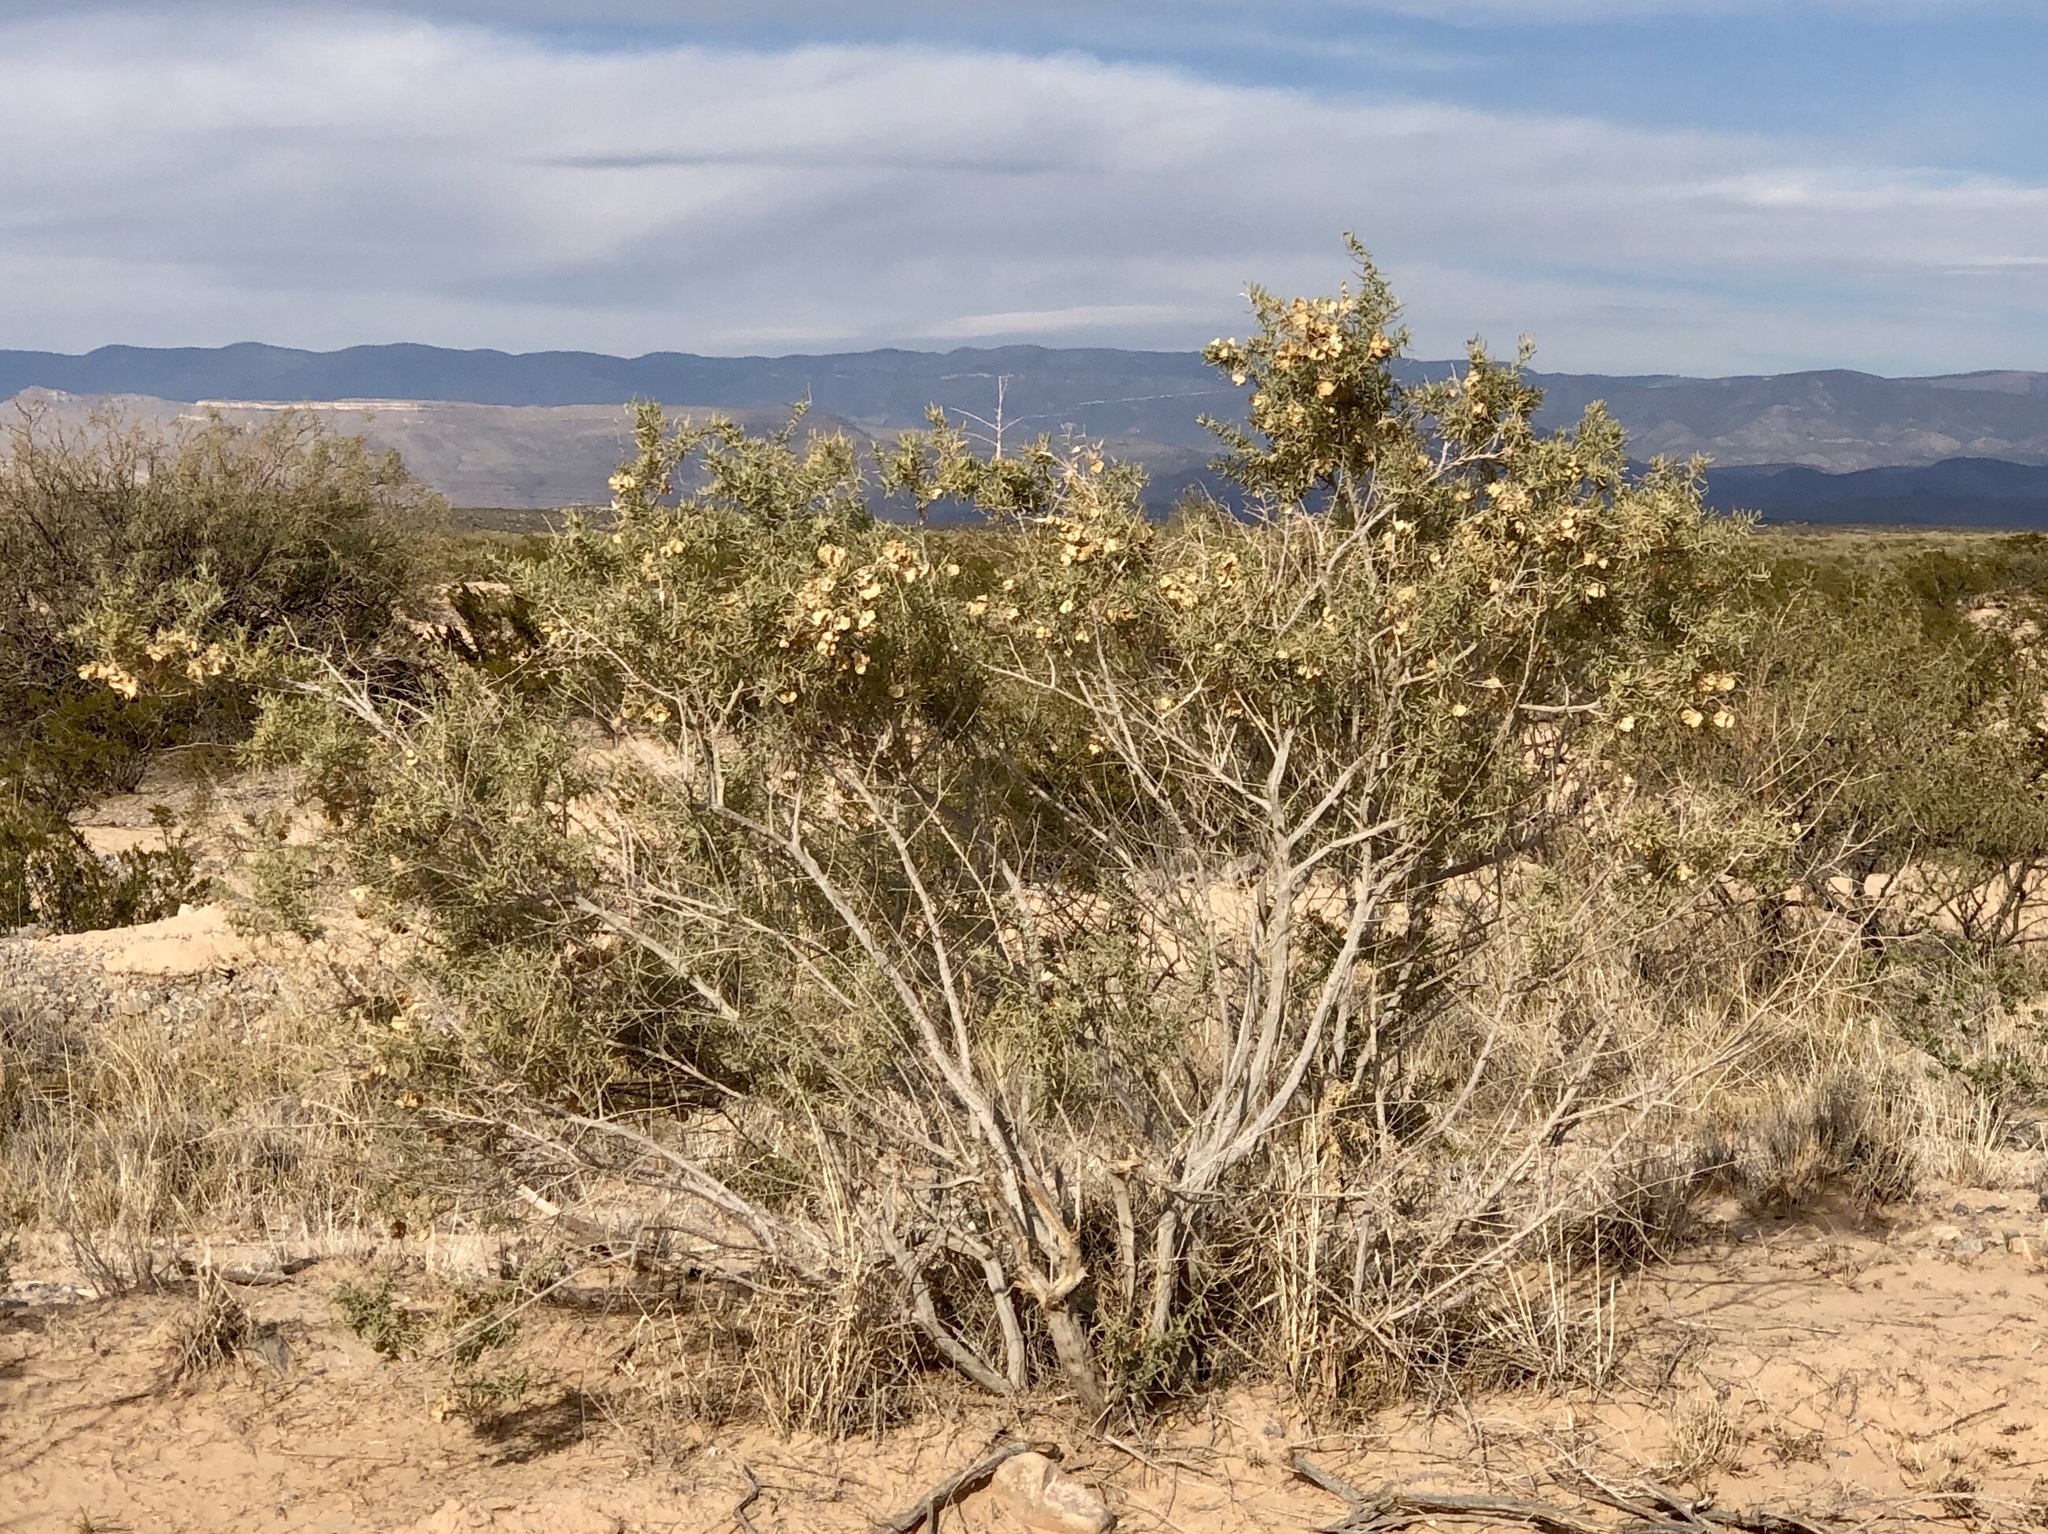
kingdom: Plantae
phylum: Tracheophyta
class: Magnoliopsida
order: Caryophyllales
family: Amaranthaceae
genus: Atriplex
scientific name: Atriplex canescens
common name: Four-wing saltbush
